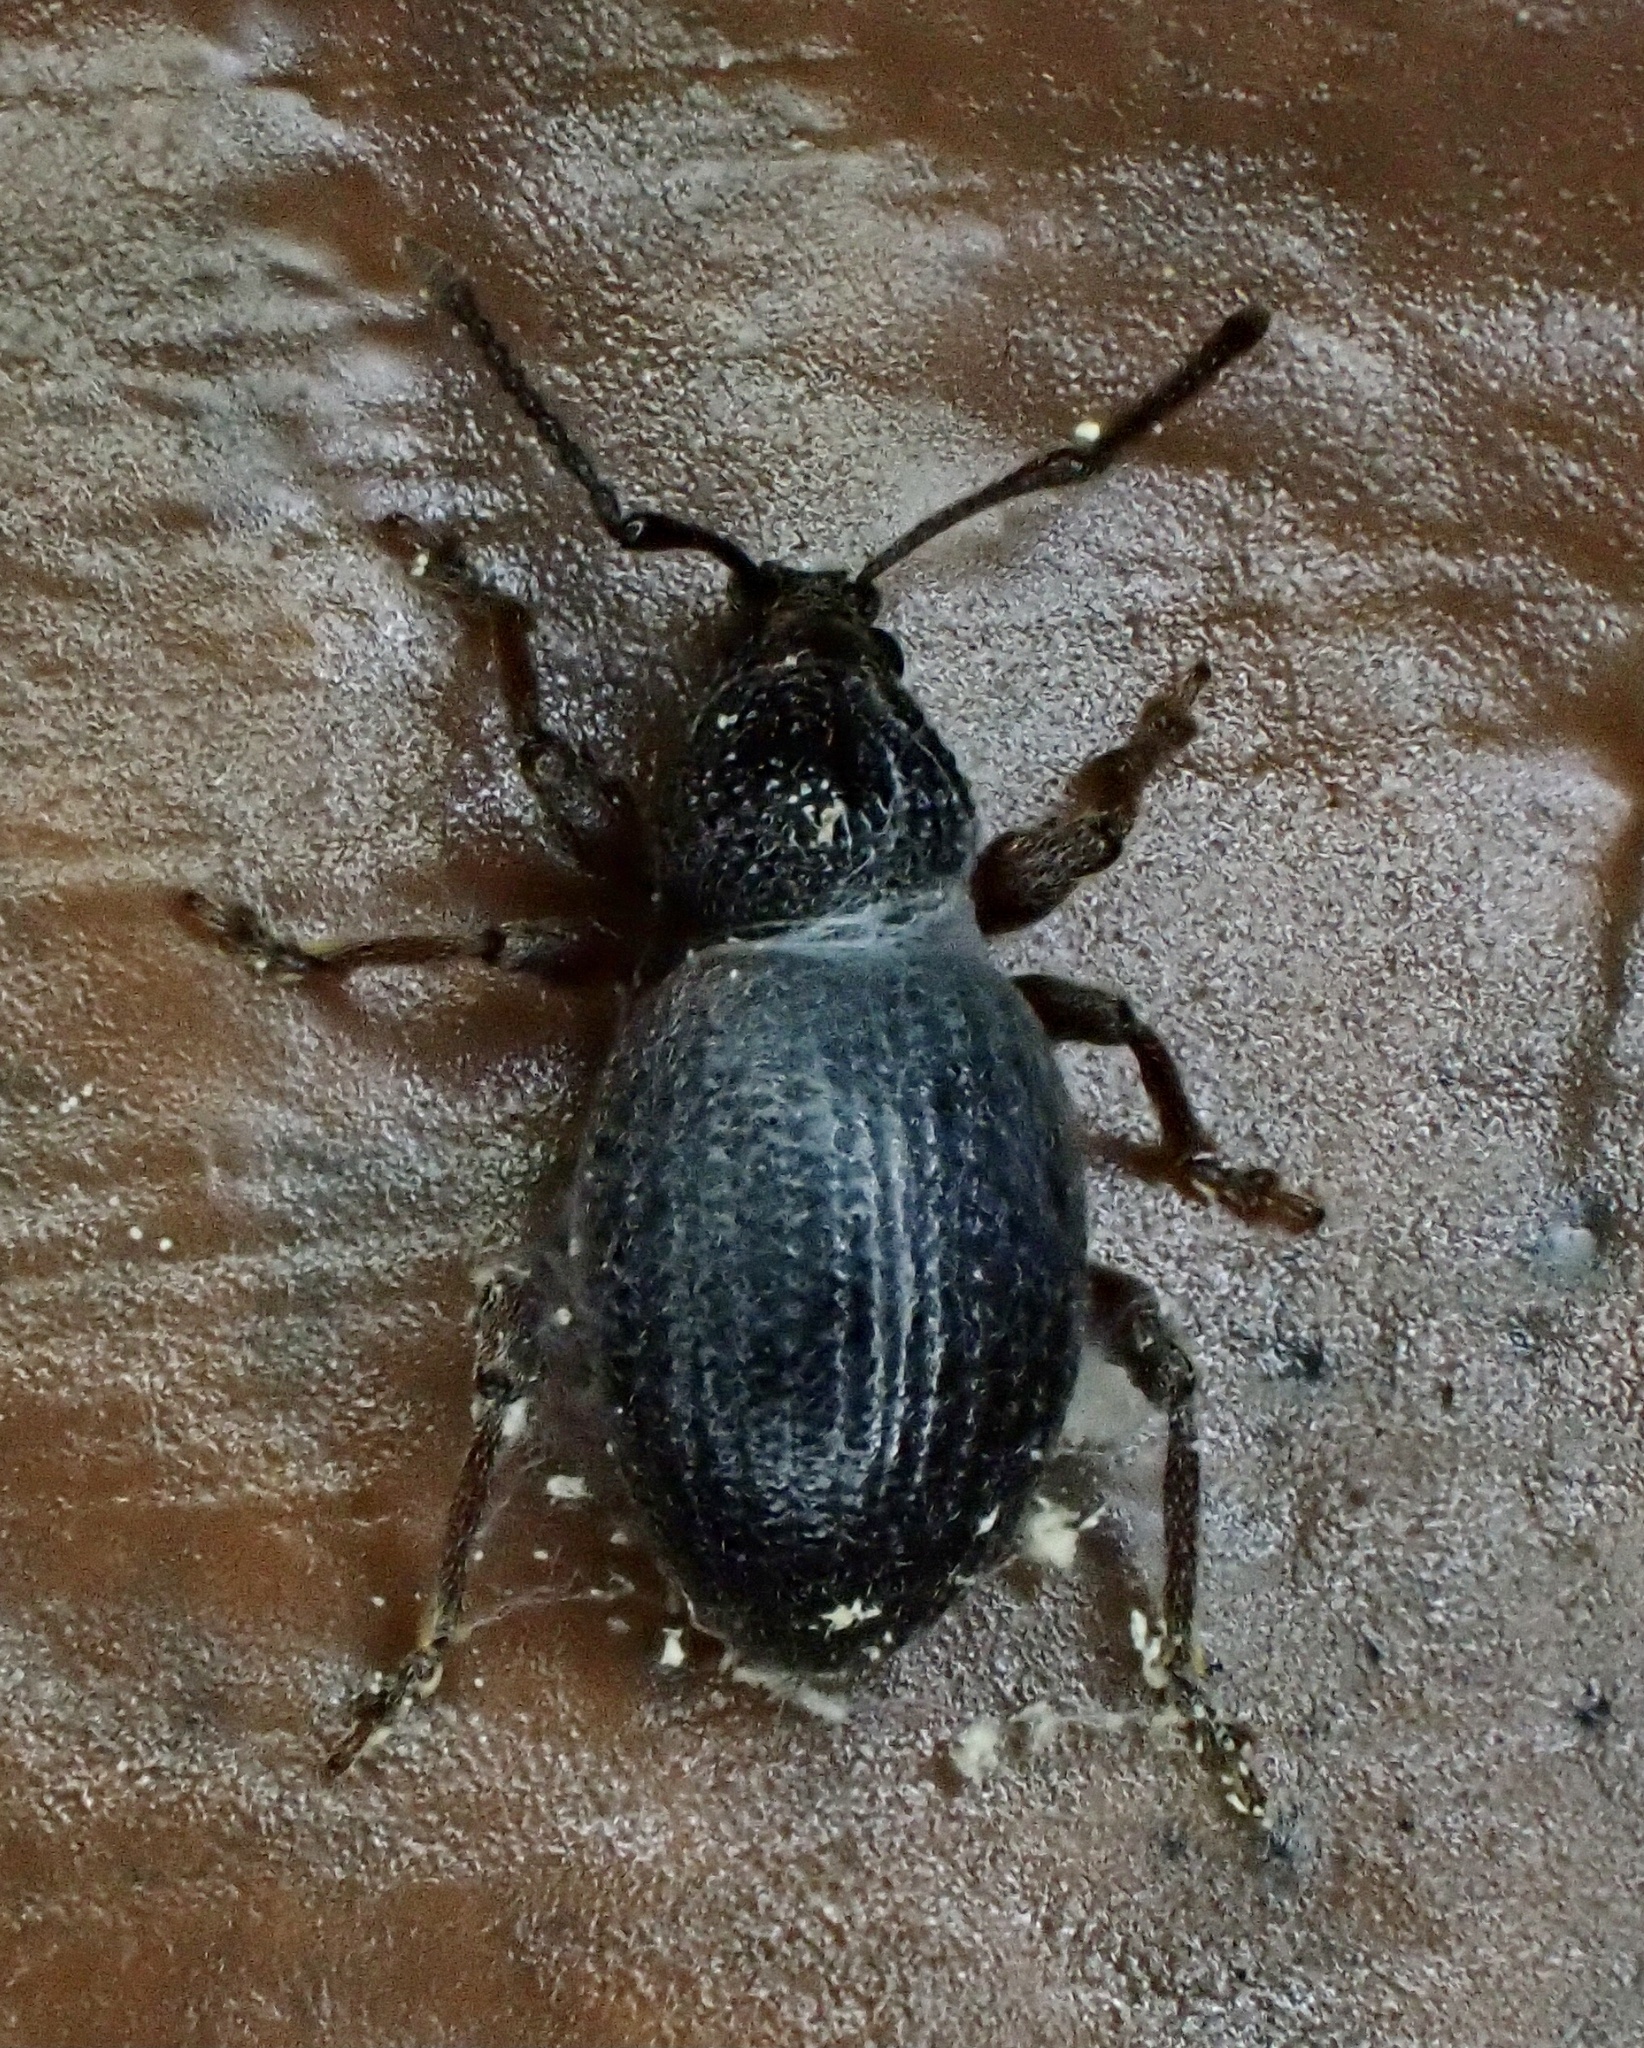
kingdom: Animalia
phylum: Arthropoda
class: Insecta
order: Coleoptera
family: Curculionidae
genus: Otiorhynchus
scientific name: Otiorhynchus ovatus
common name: Strawberry root weevil
